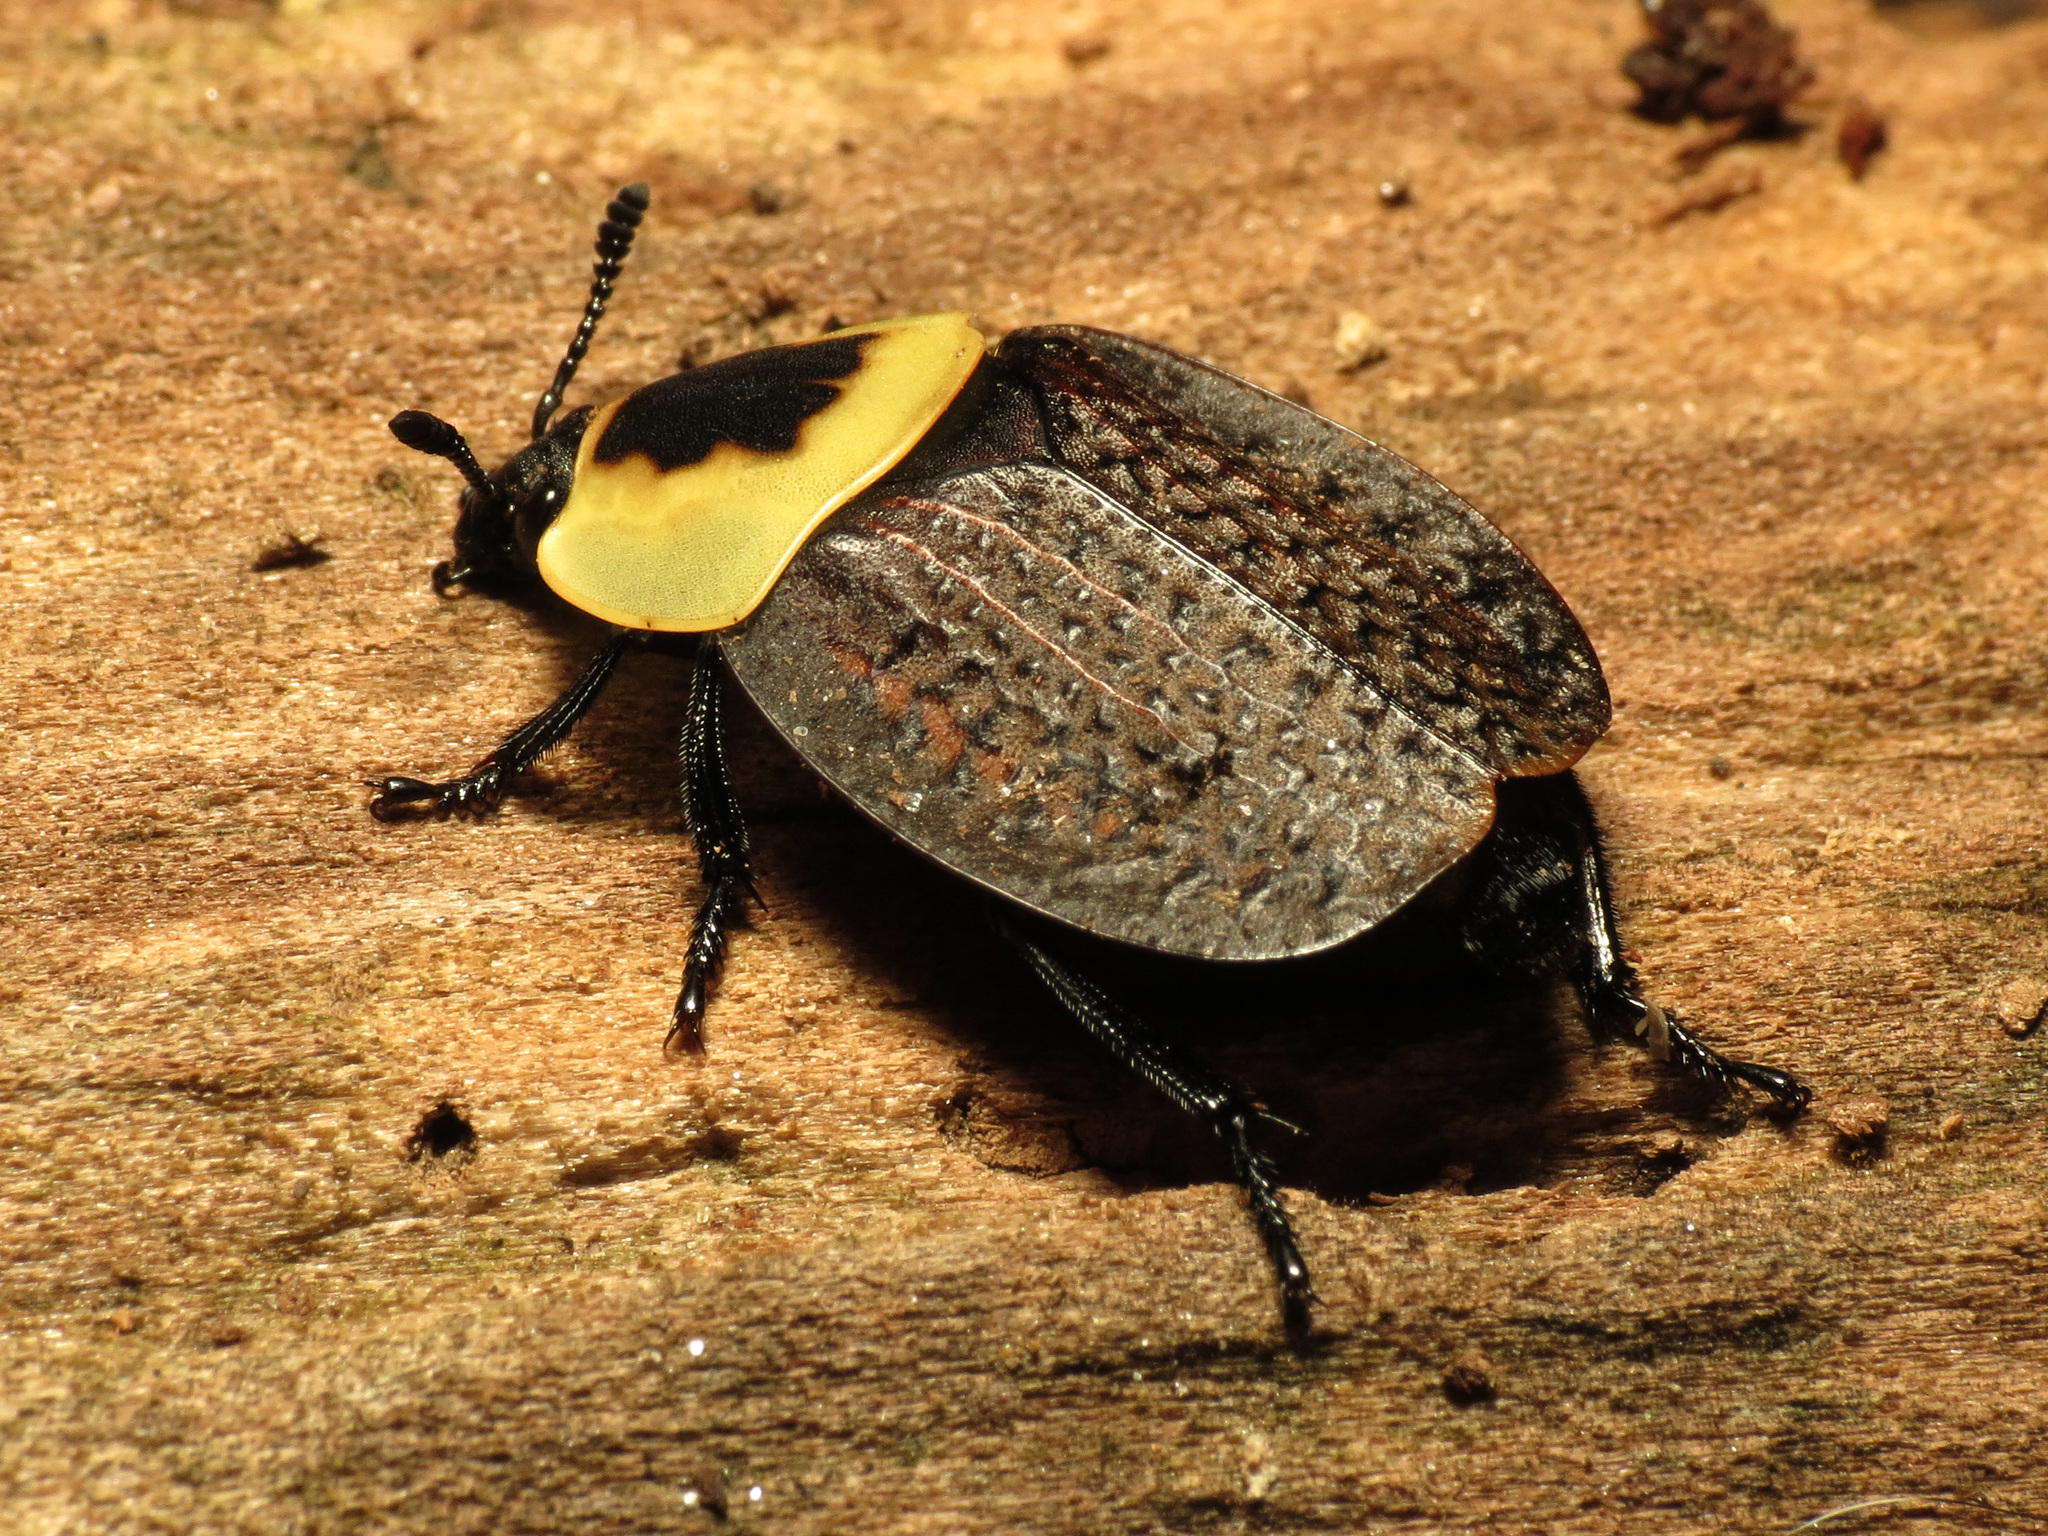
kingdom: Animalia
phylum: Arthropoda
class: Insecta
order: Coleoptera
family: Staphylinidae
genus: Necrophila
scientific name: Necrophila americana
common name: American carrion beetle
